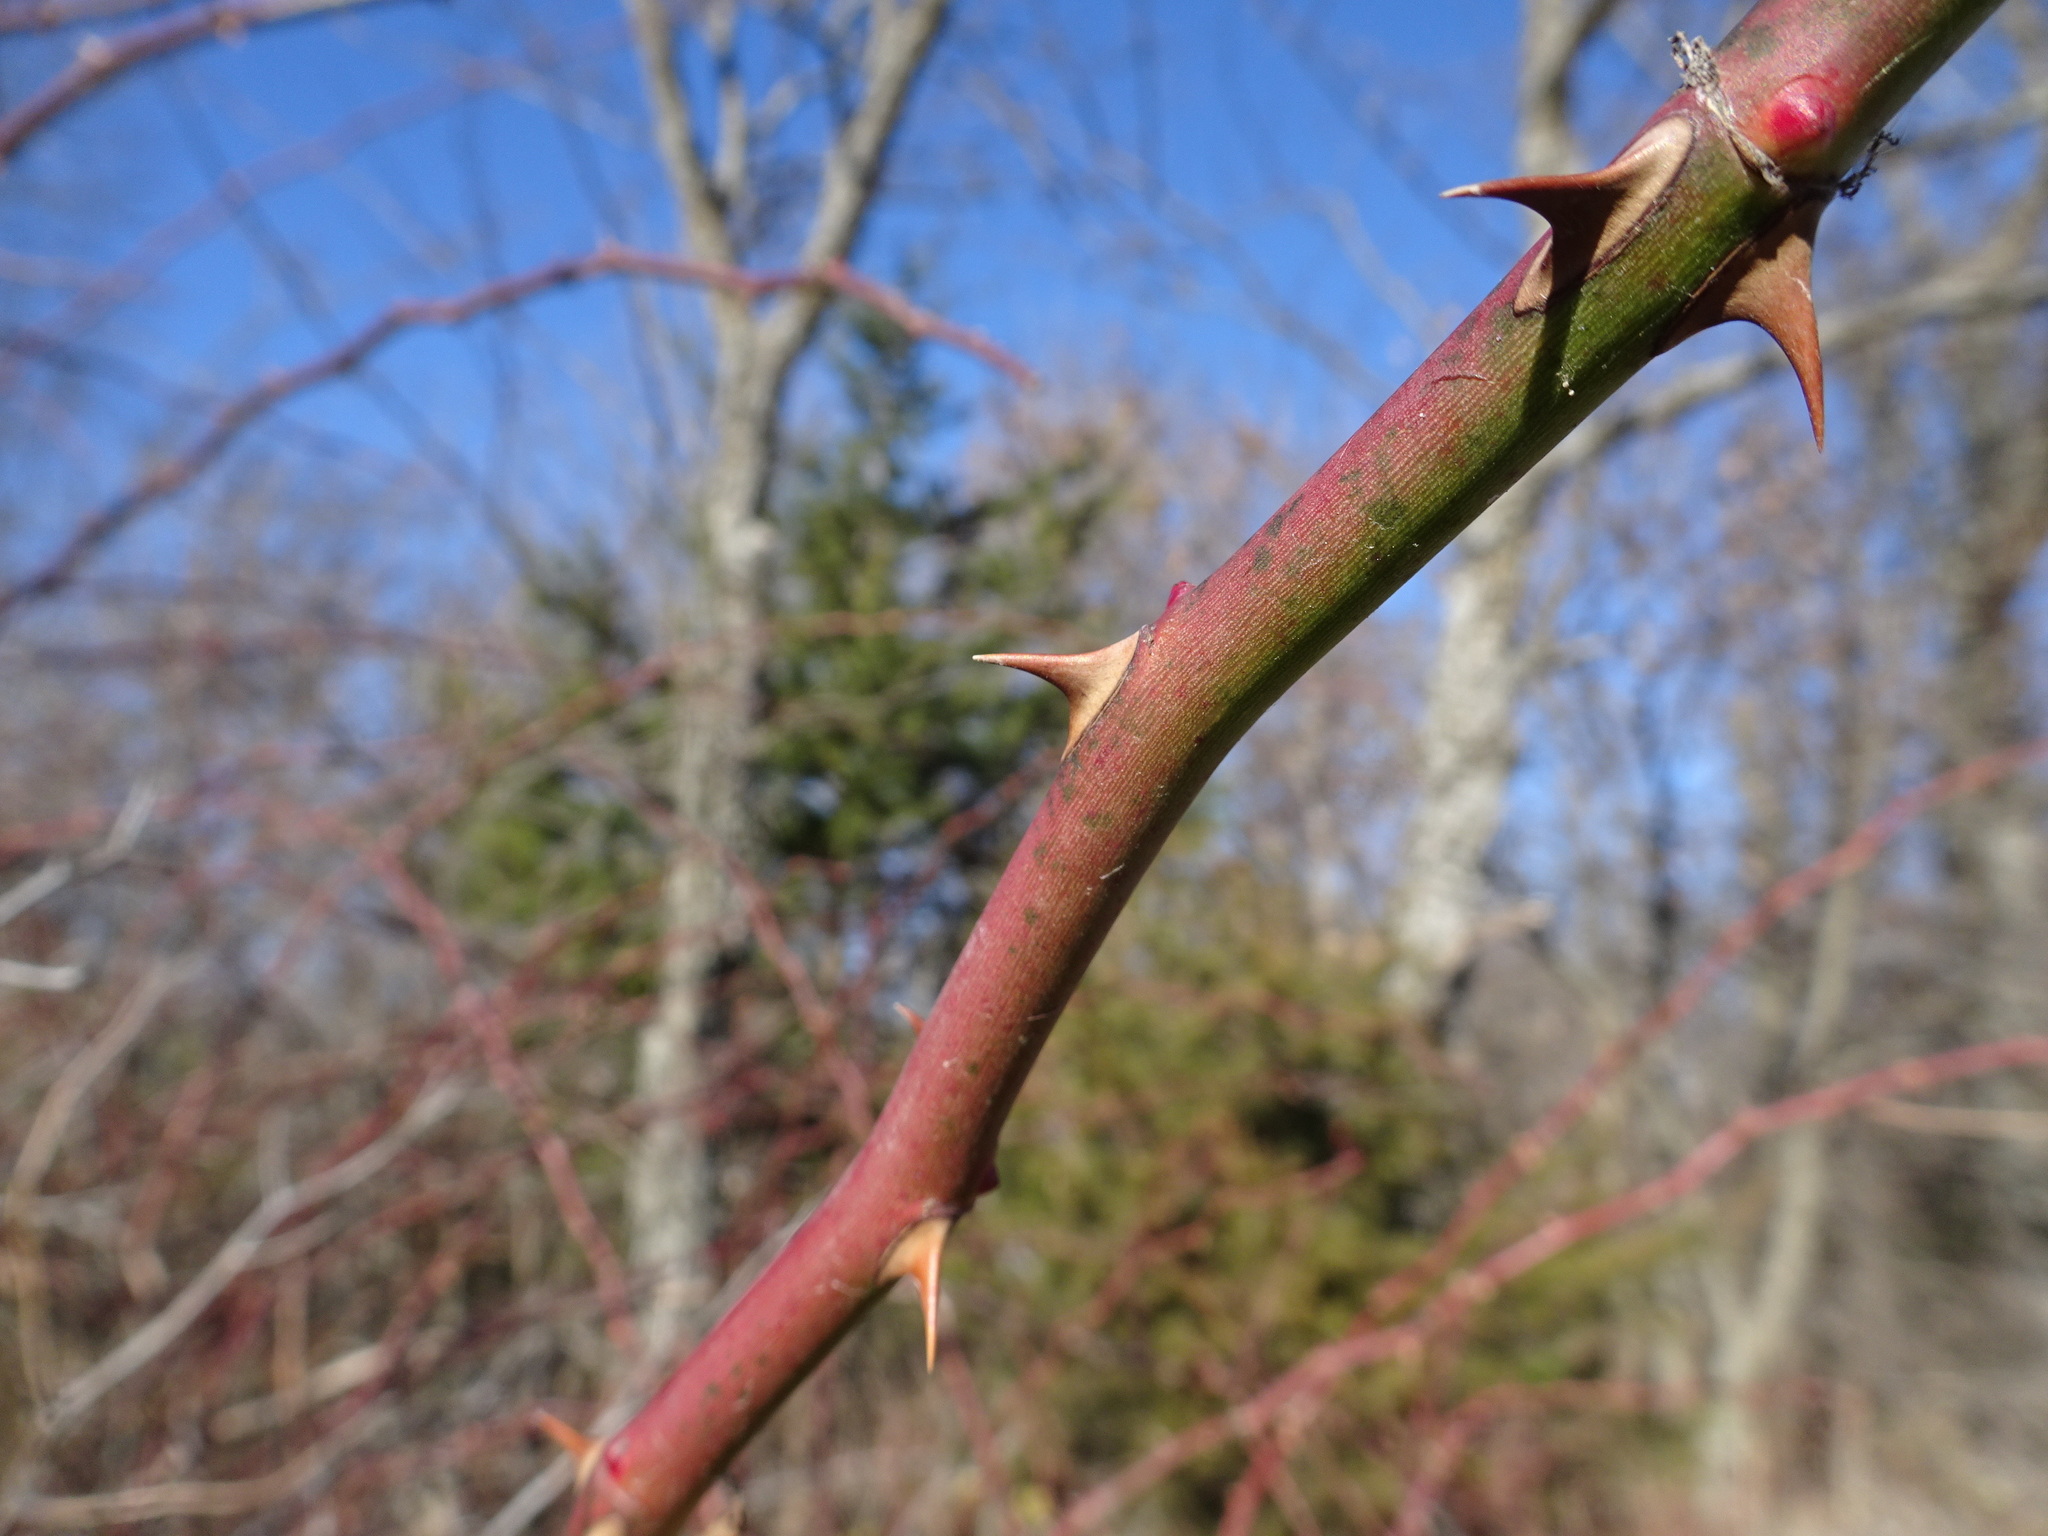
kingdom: Plantae
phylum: Tracheophyta
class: Magnoliopsida
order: Rosales
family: Rosaceae
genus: Rosa
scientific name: Rosa multiflora
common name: Multiflora rose
